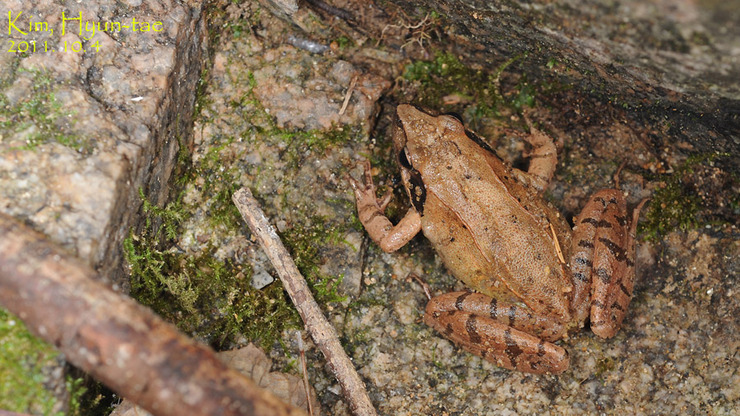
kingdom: Animalia
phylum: Chordata
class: Amphibia
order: Anura
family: Ranidae
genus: Rana
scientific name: Rana uenoi
